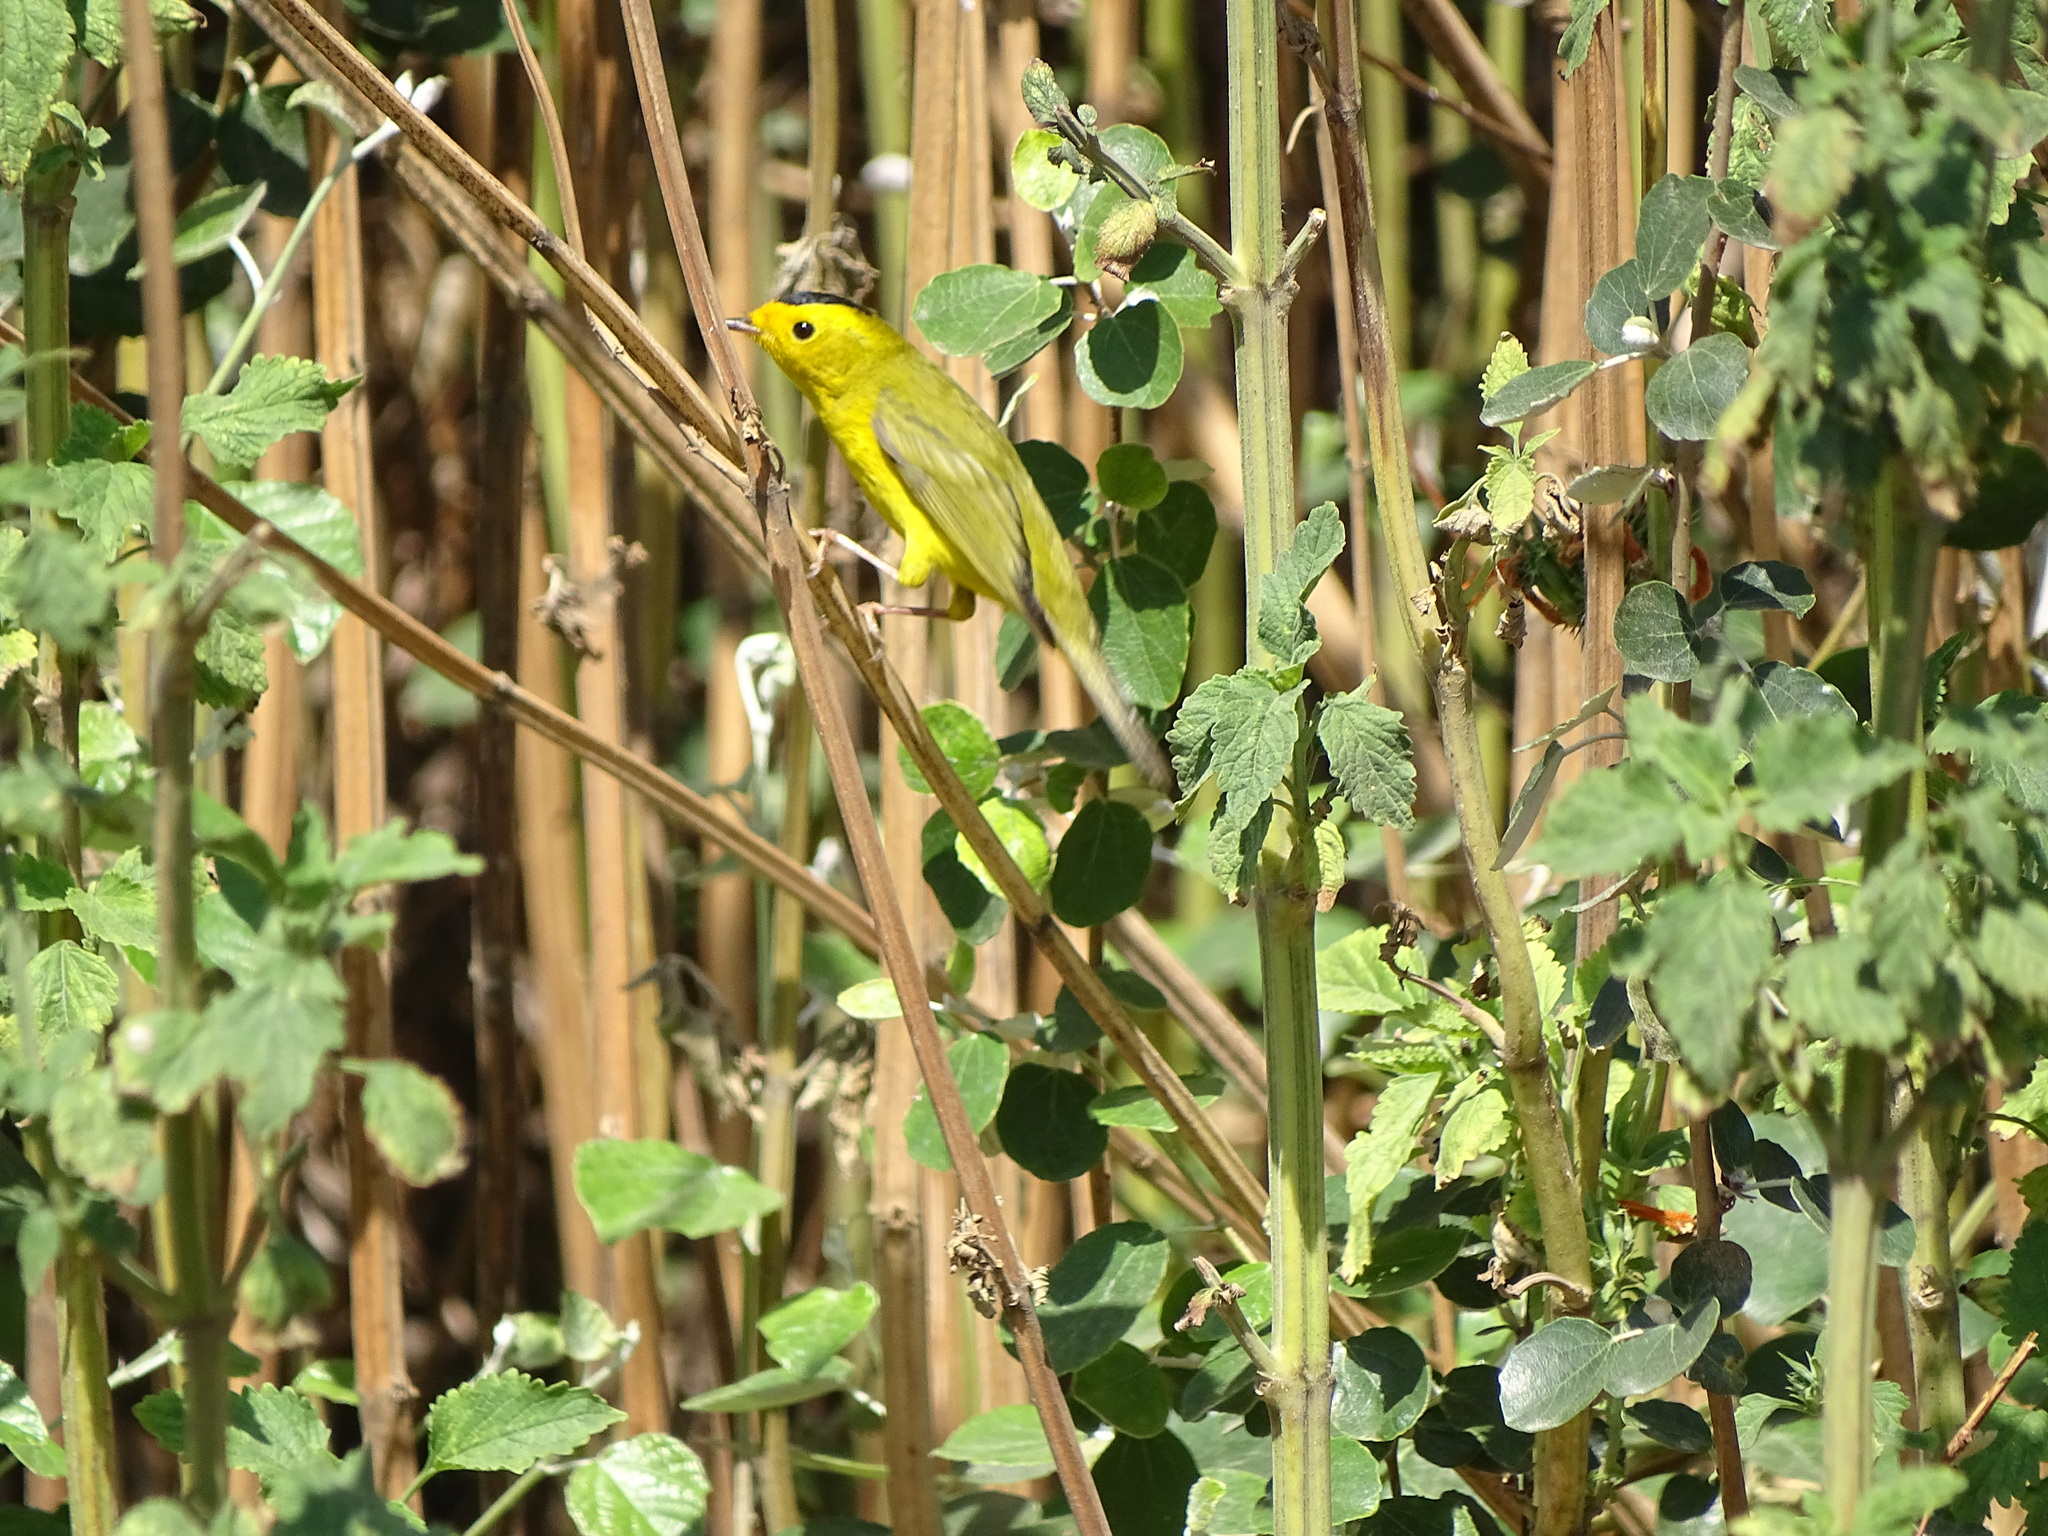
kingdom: Animalia
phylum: Chordata
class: Aves
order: Passeriformes
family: Parulidae
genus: Cardellina
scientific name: Cardellina pusilla
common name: Wilson's warbler
